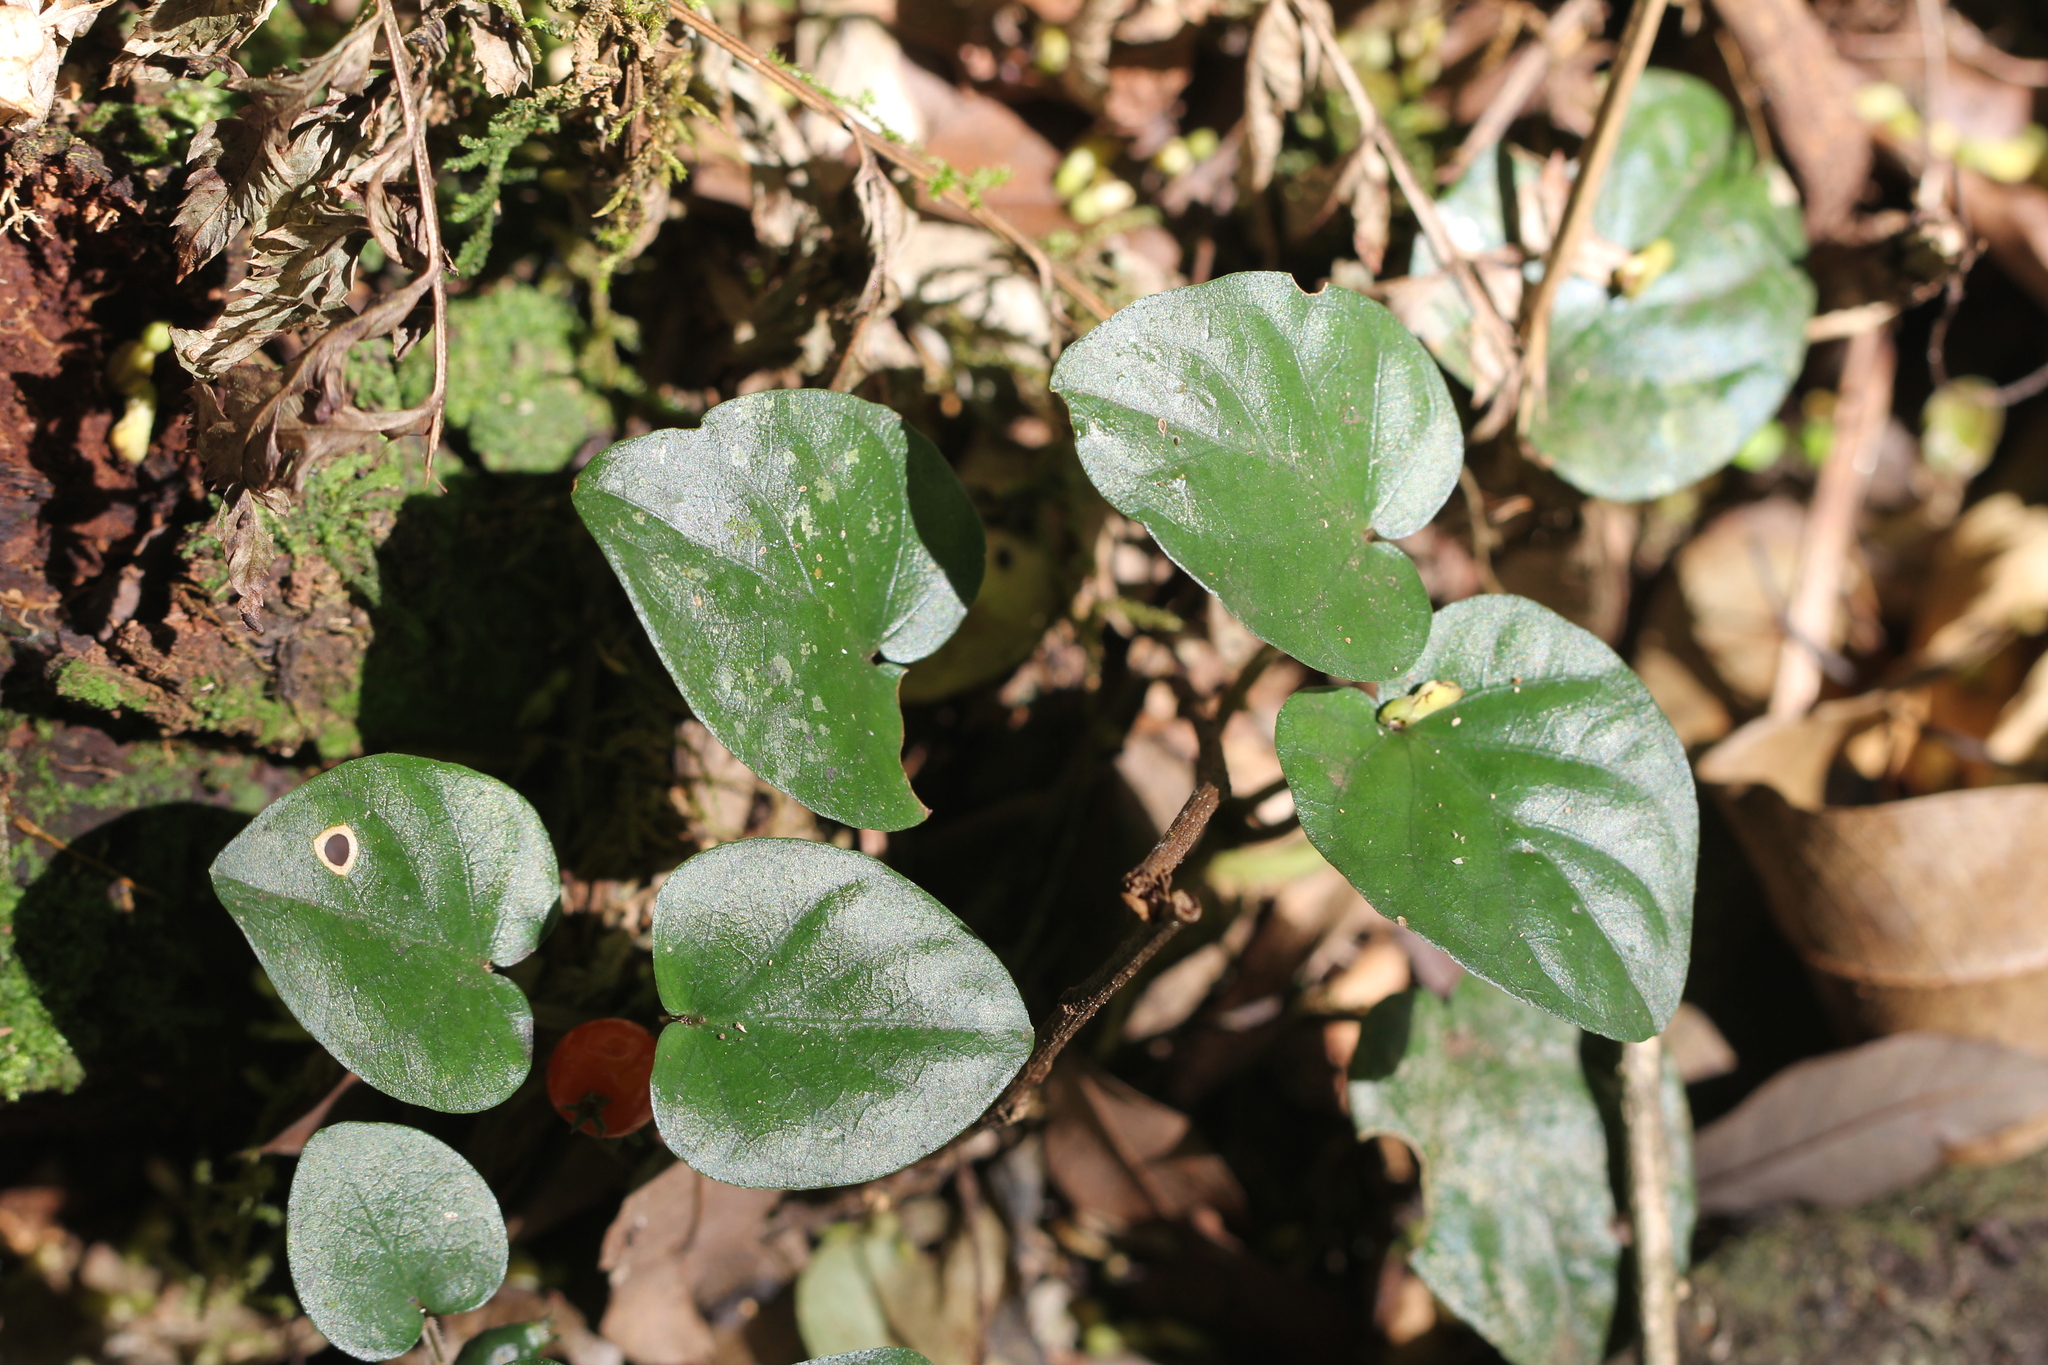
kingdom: Plantae
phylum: Tracheophyta
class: Magnoliopsida
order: Gentianales
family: Rubiaceae
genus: Geophila
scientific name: Geophila repens
